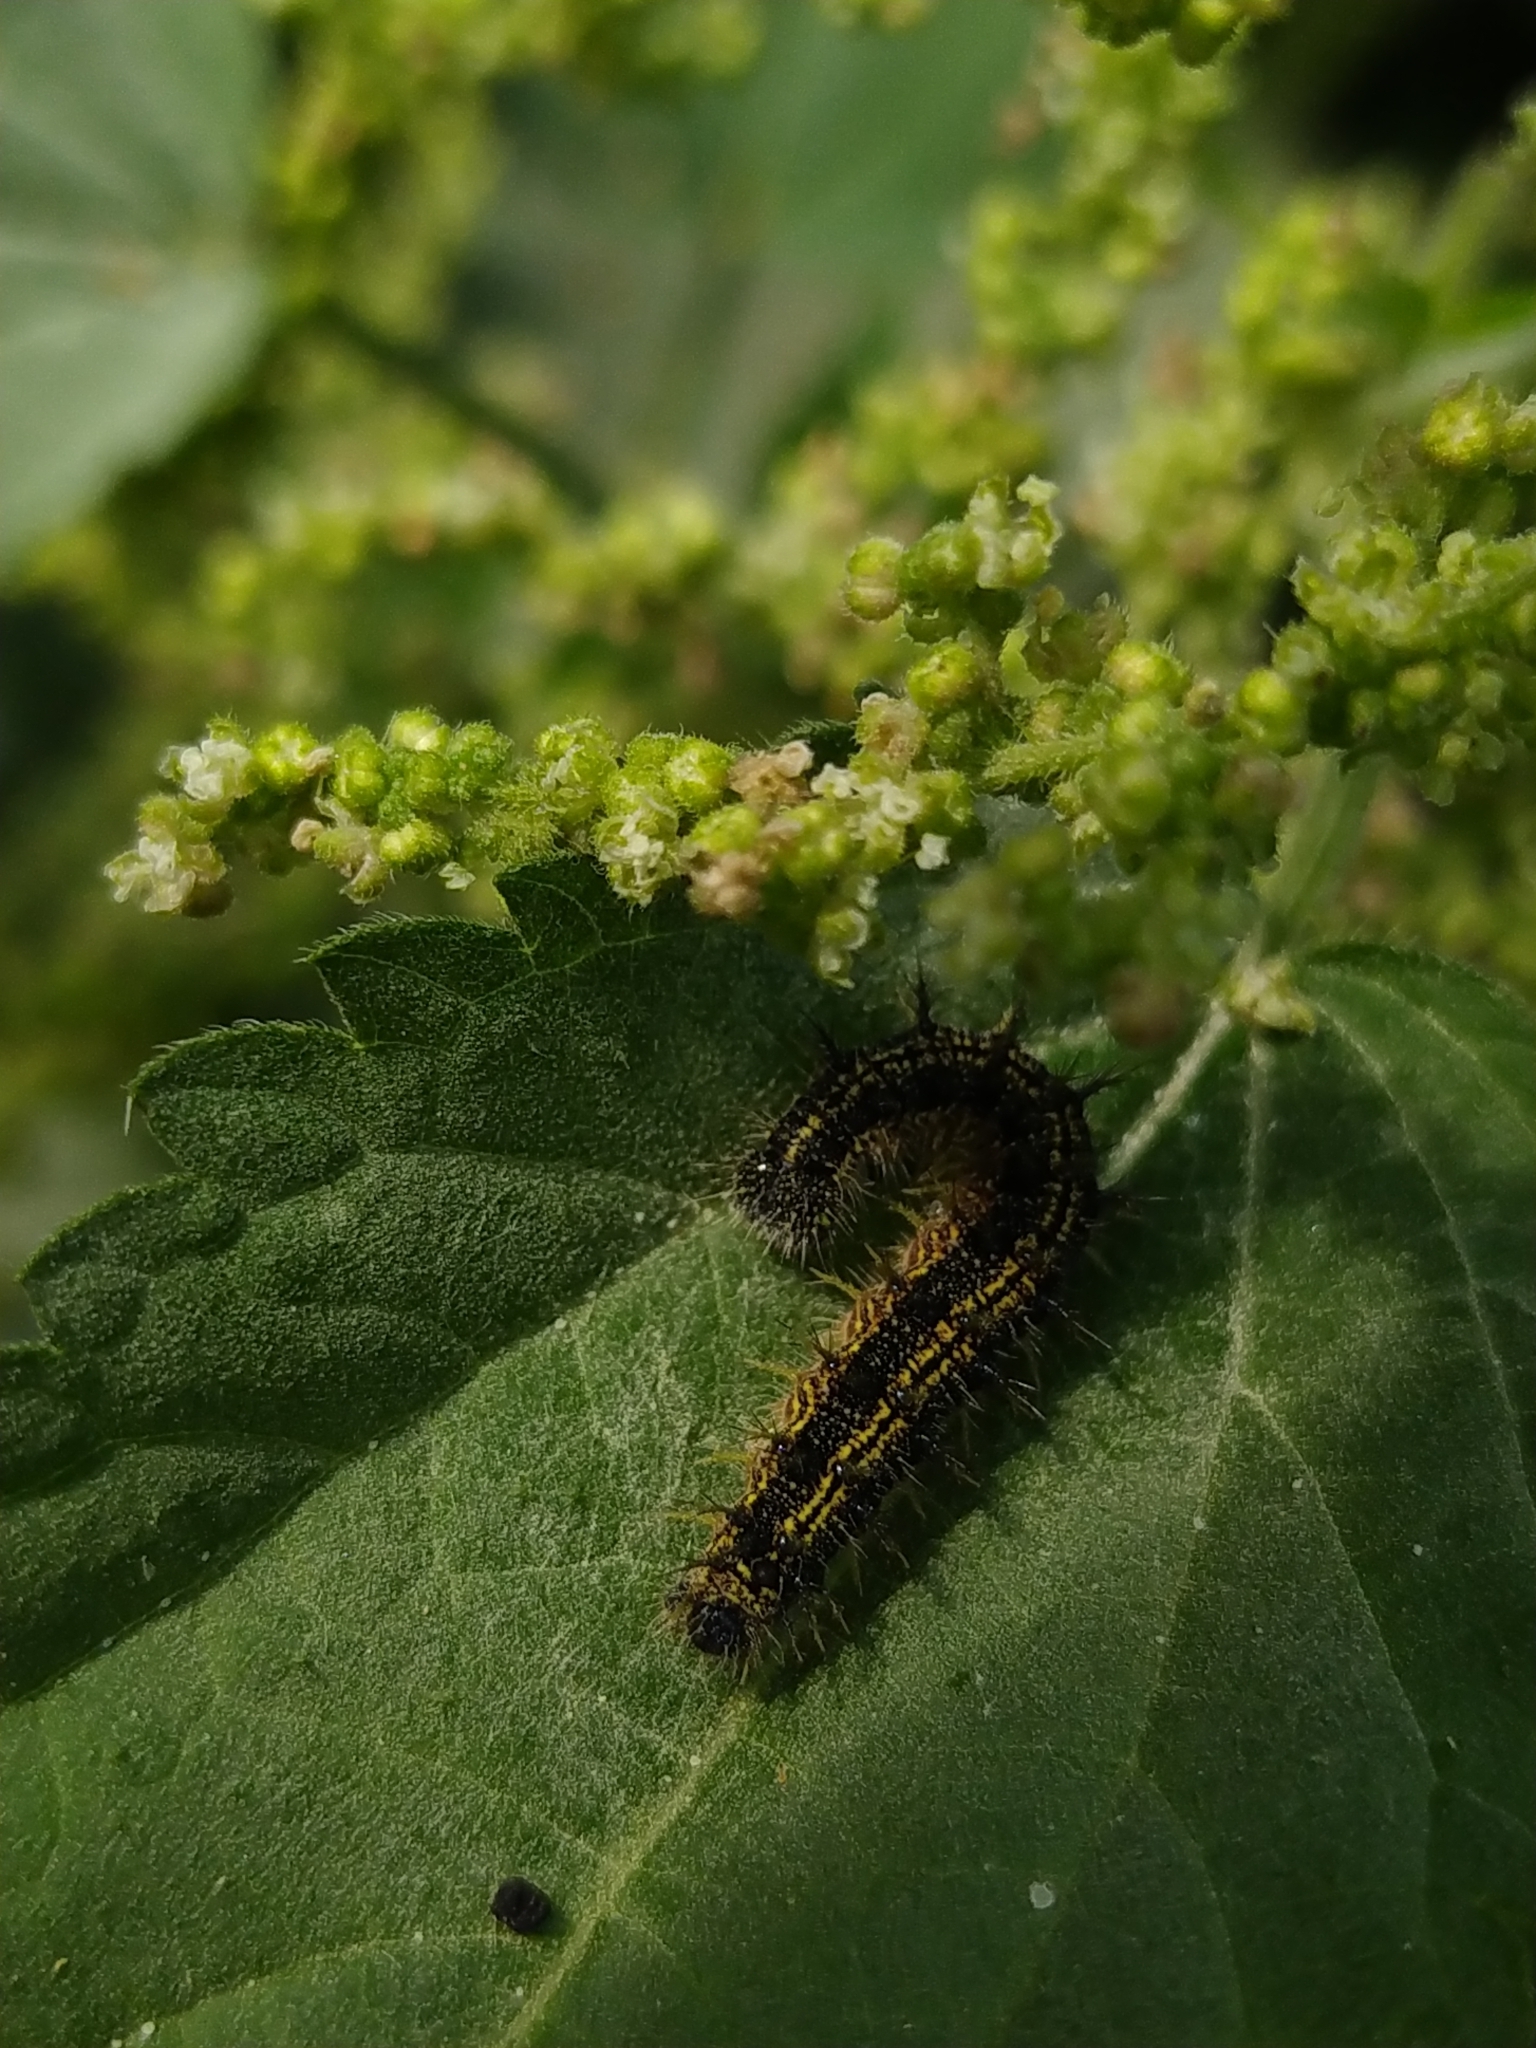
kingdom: Animalia
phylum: Arthropoda
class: Insecta
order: Lepidoptera
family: Nymphalidae
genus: Aglais
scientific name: Aglais urticae
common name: Small tortoiseshell
